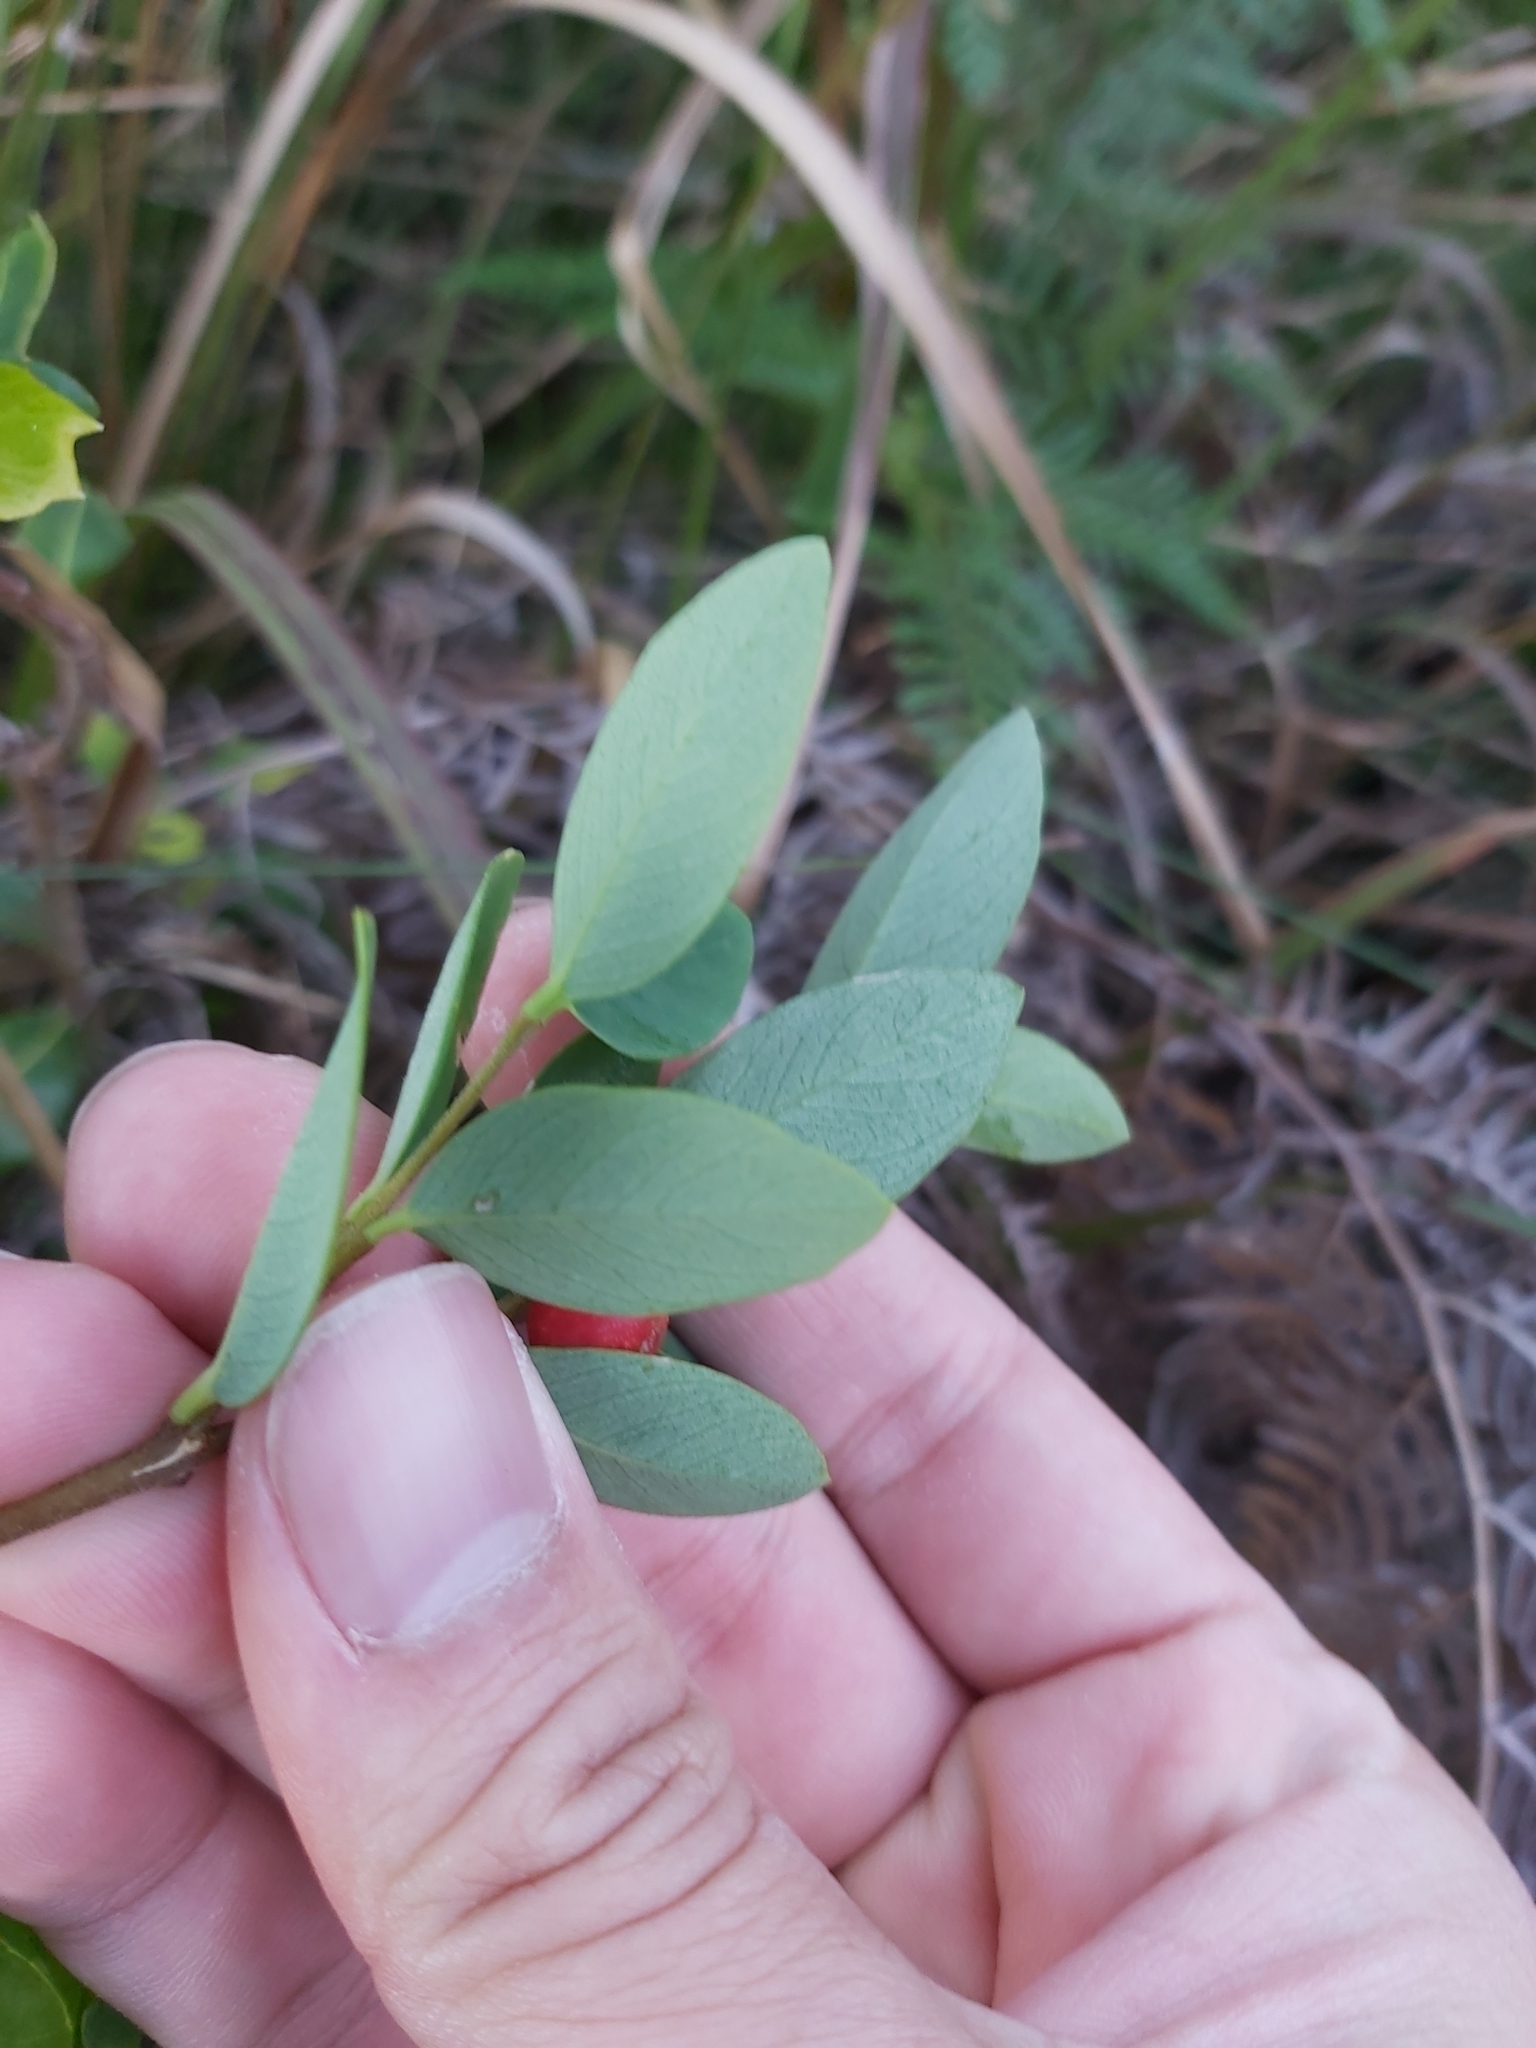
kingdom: Plantae
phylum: Tracheophyta
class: Magnoliopsida
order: Malvales
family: Thymelaeaceae
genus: Wikstroemia
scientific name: Wikstroemia indica
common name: Tiebush
